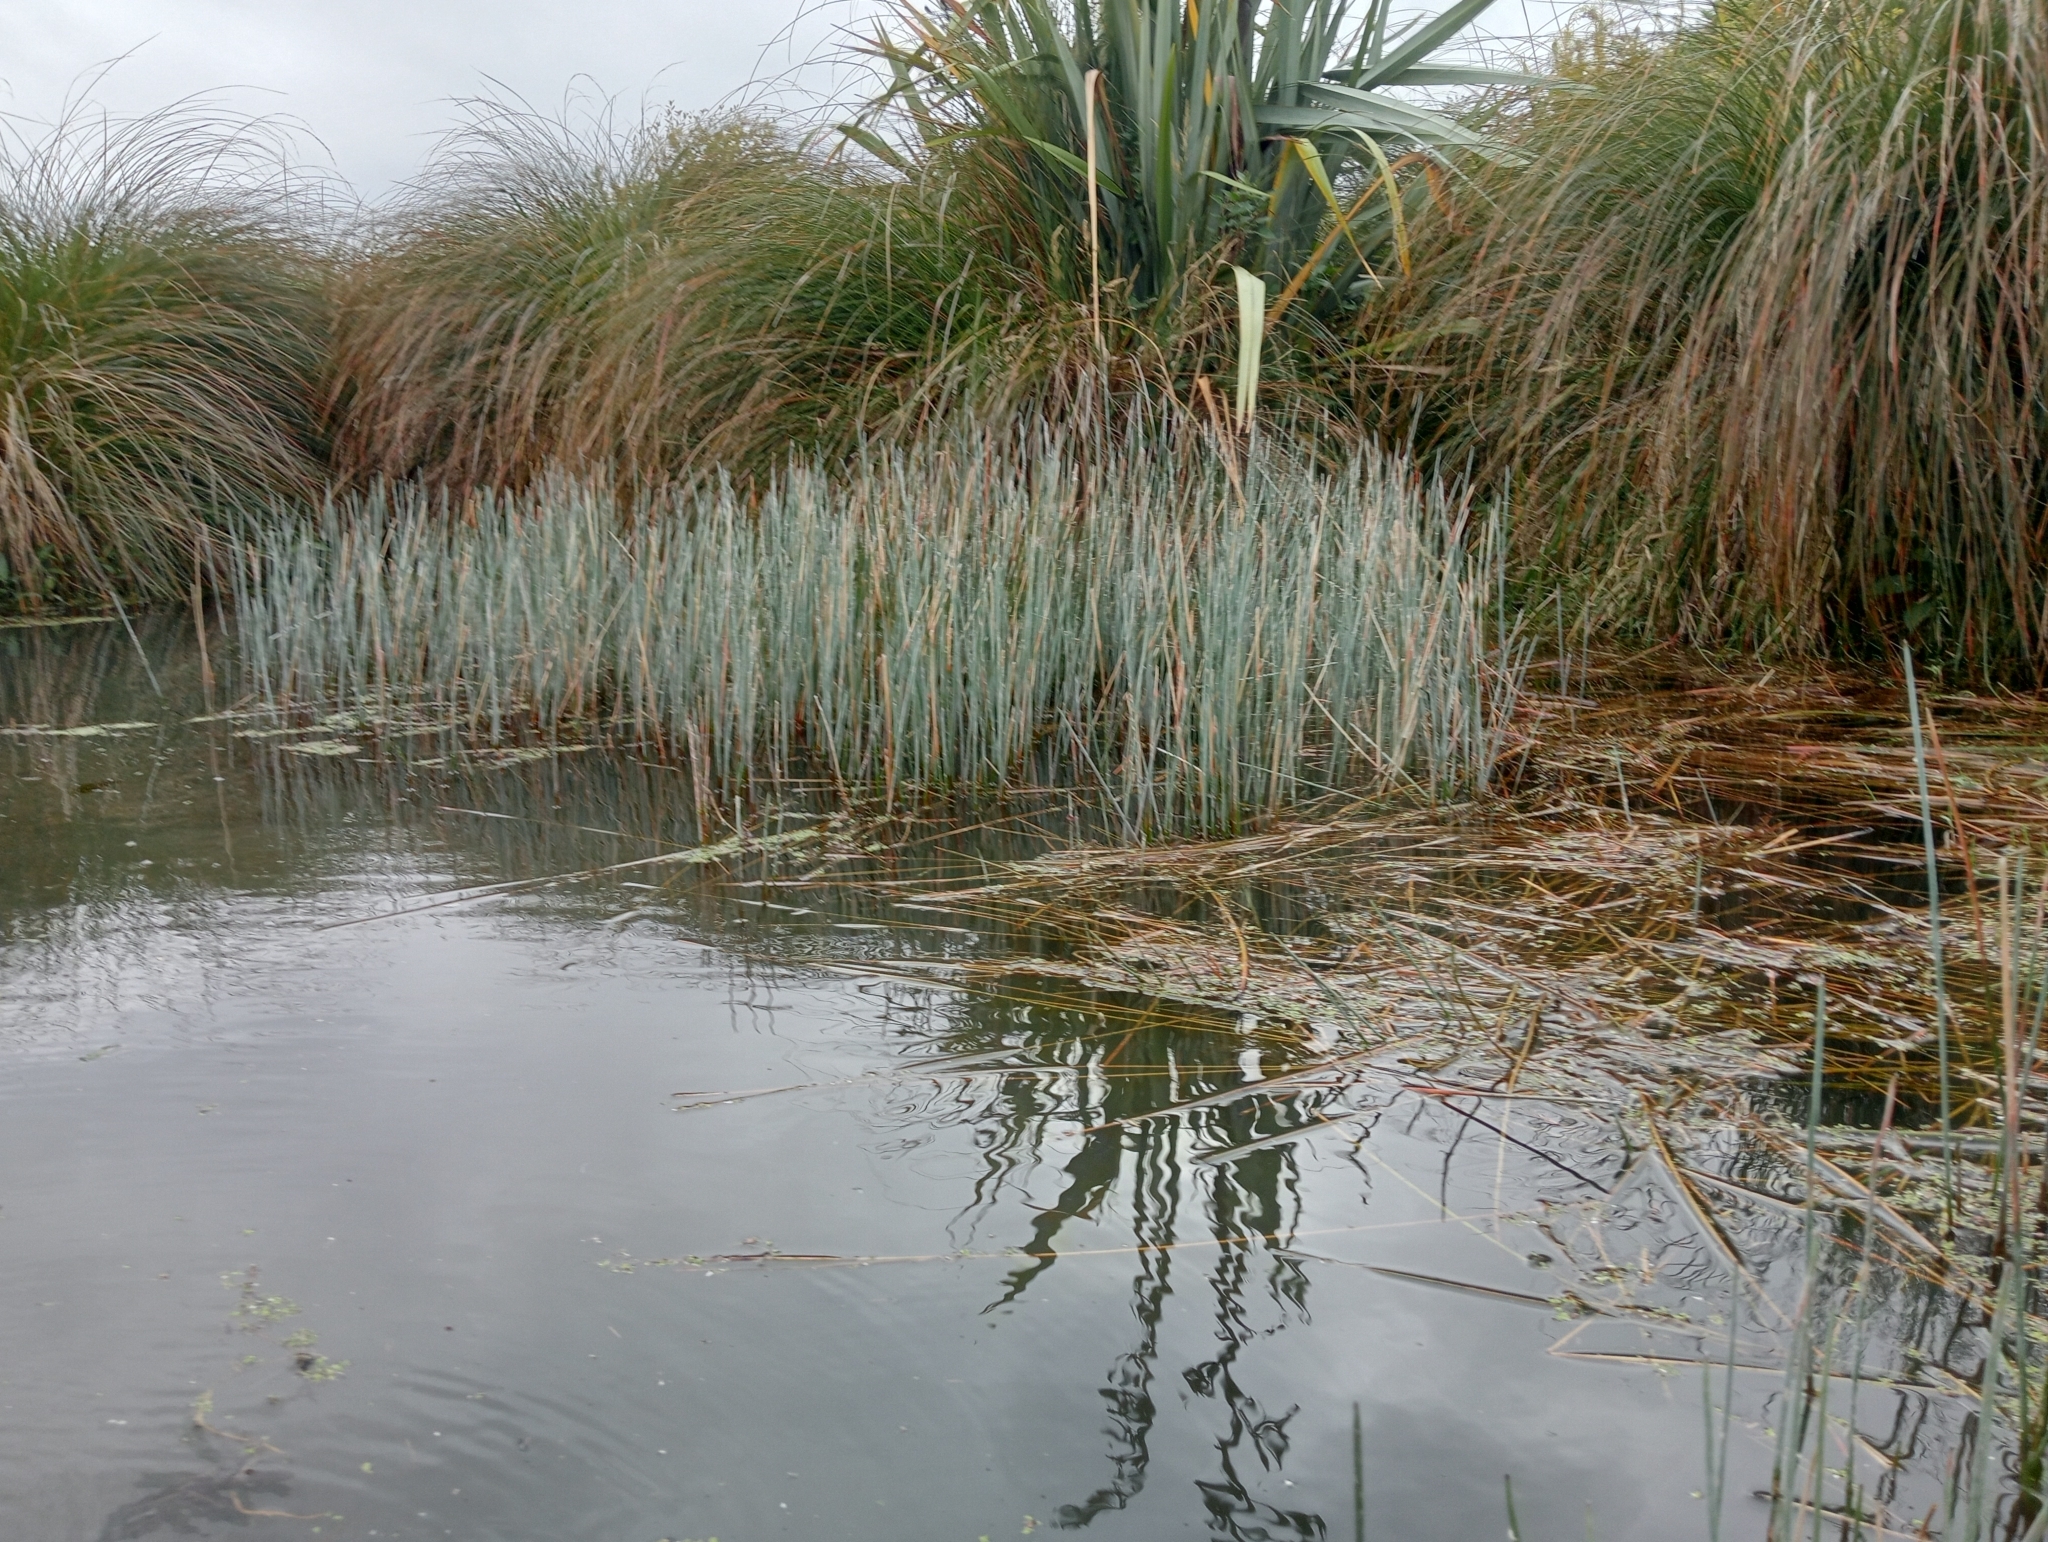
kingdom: Plantae
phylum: Tracheophyta
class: Liliopsida
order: Poales
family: Cyperaceae
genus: Eleocharis
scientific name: Eleocharis acuta
